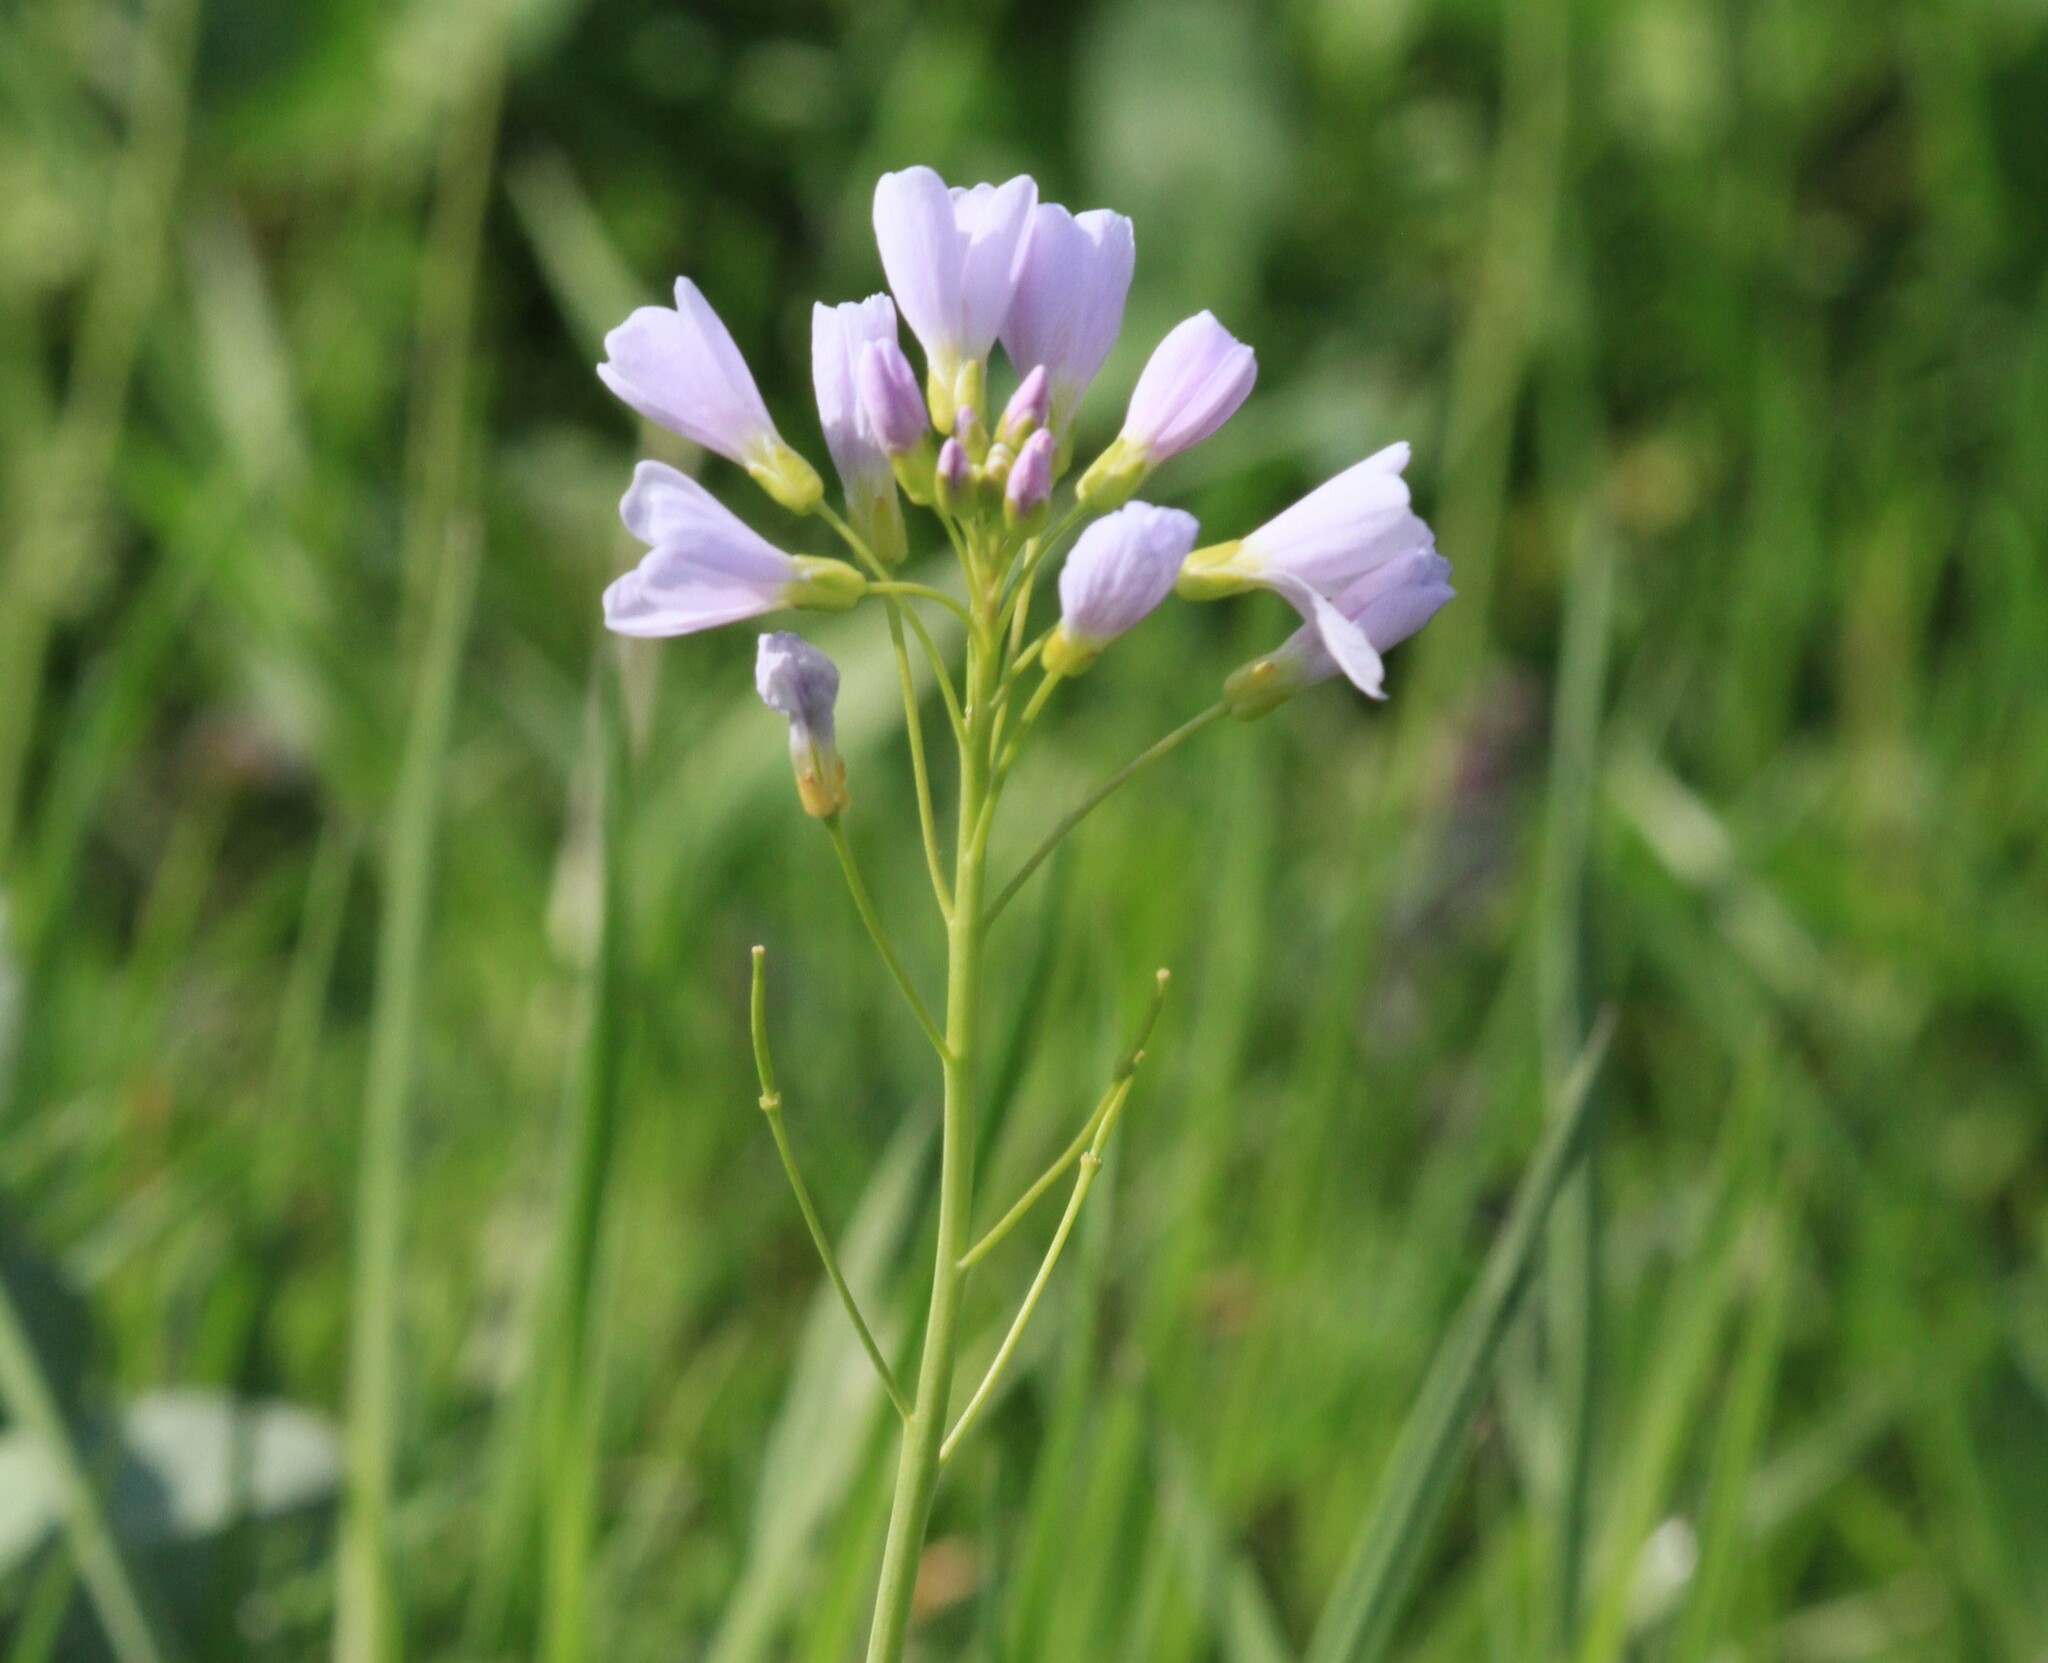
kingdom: Plantae
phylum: Tracheophyta
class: Magnoliopsida
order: Brassicales
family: Brassicaceae
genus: Cardamine
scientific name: Cardamine pratensis
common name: Cuckoo flower
